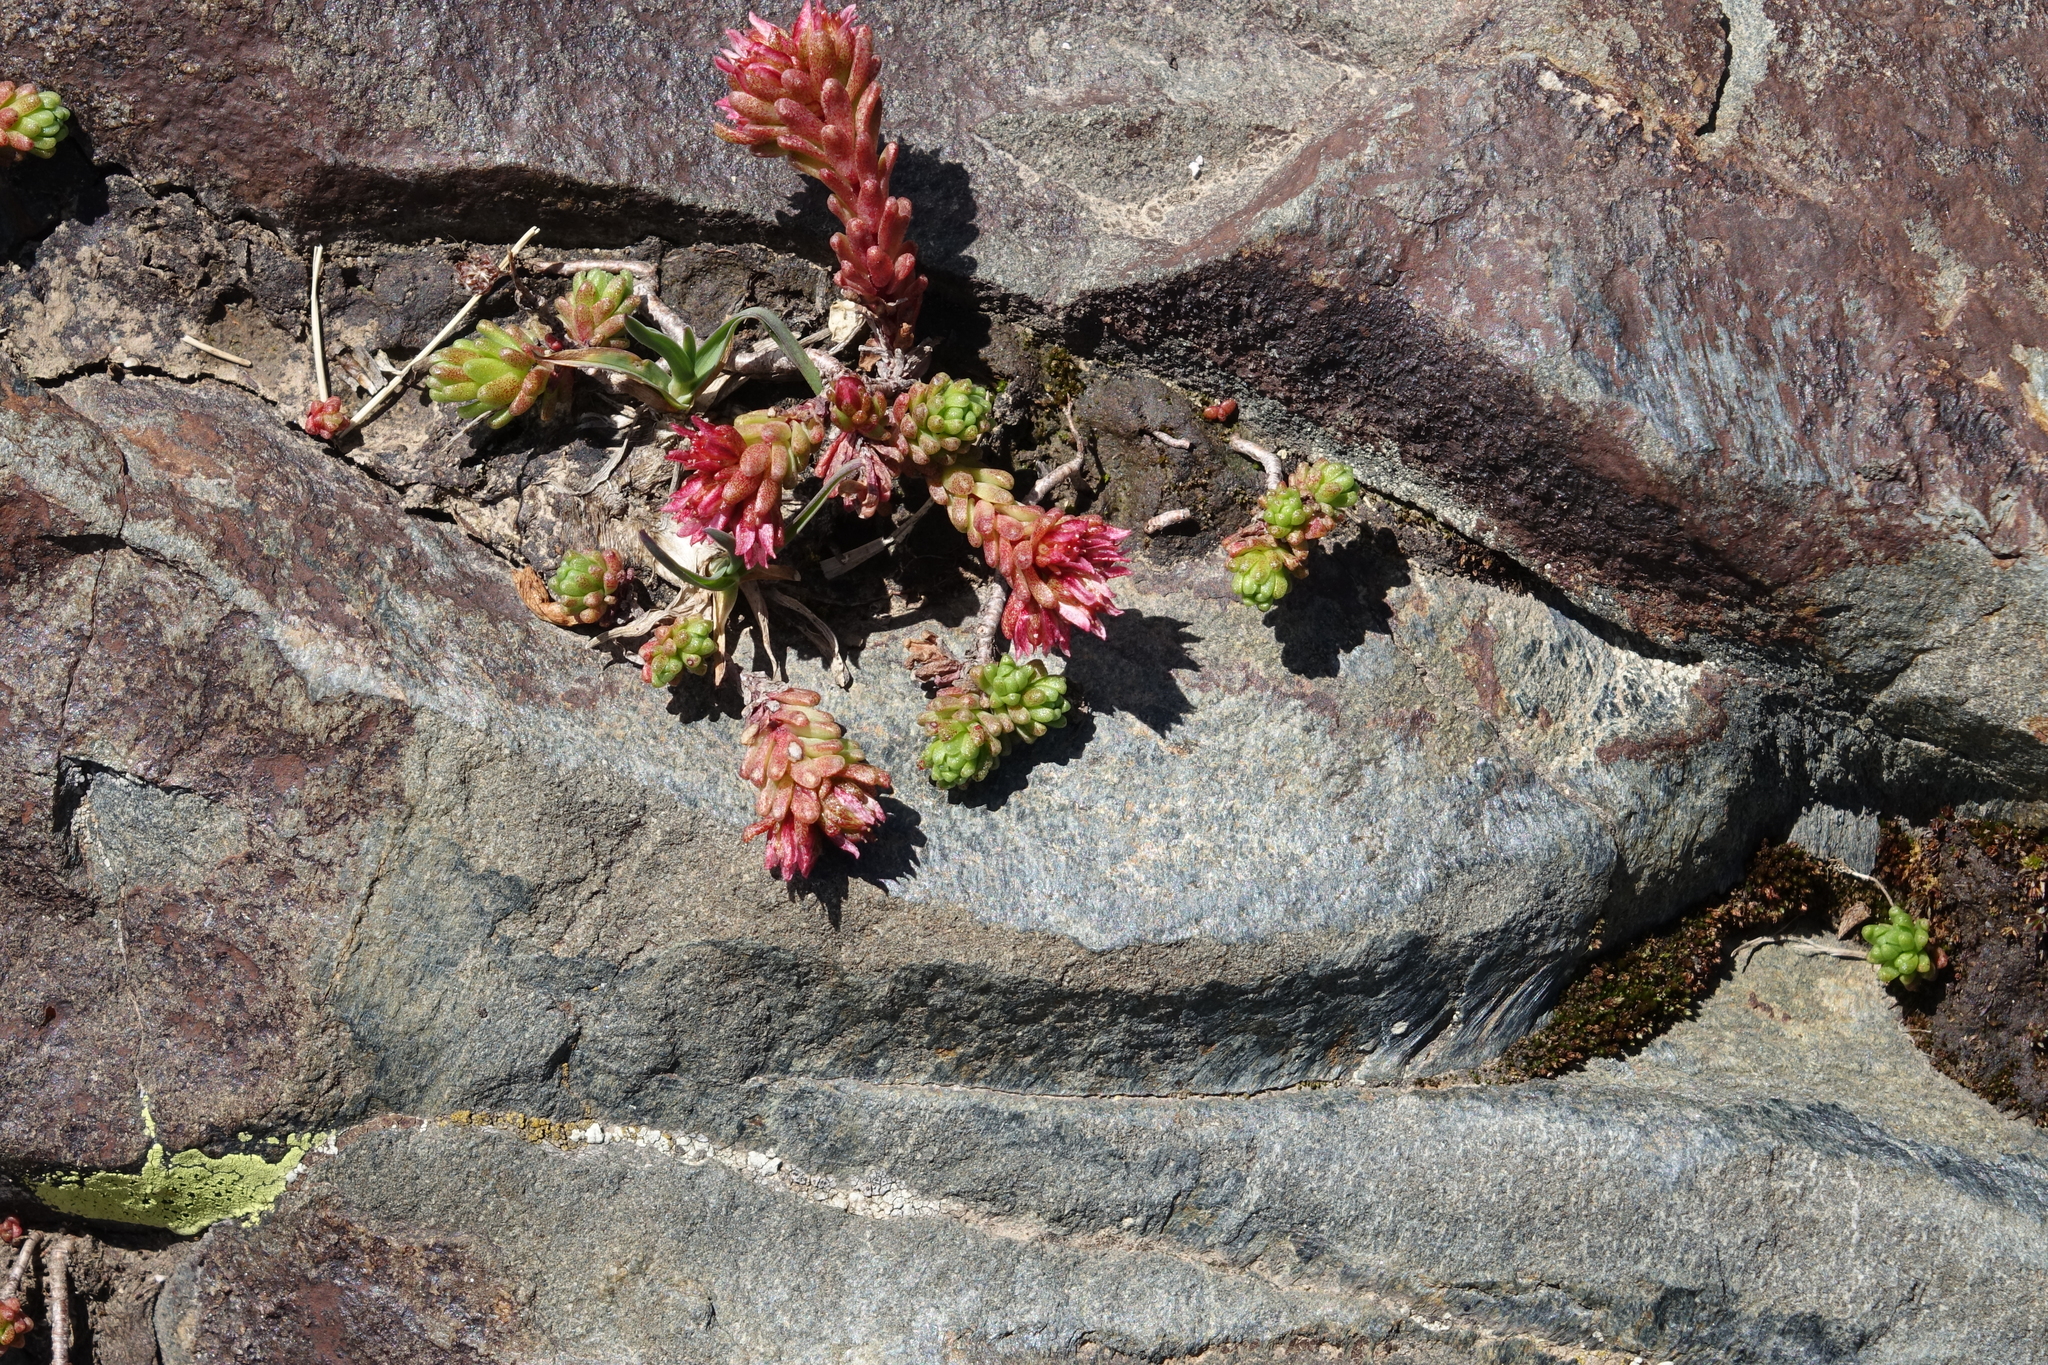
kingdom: Plantae
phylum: Tracheophyta
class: Magnoliopsida
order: Saxifragales
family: Crassulaceae
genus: Sedum
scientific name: Sedum tenellum
